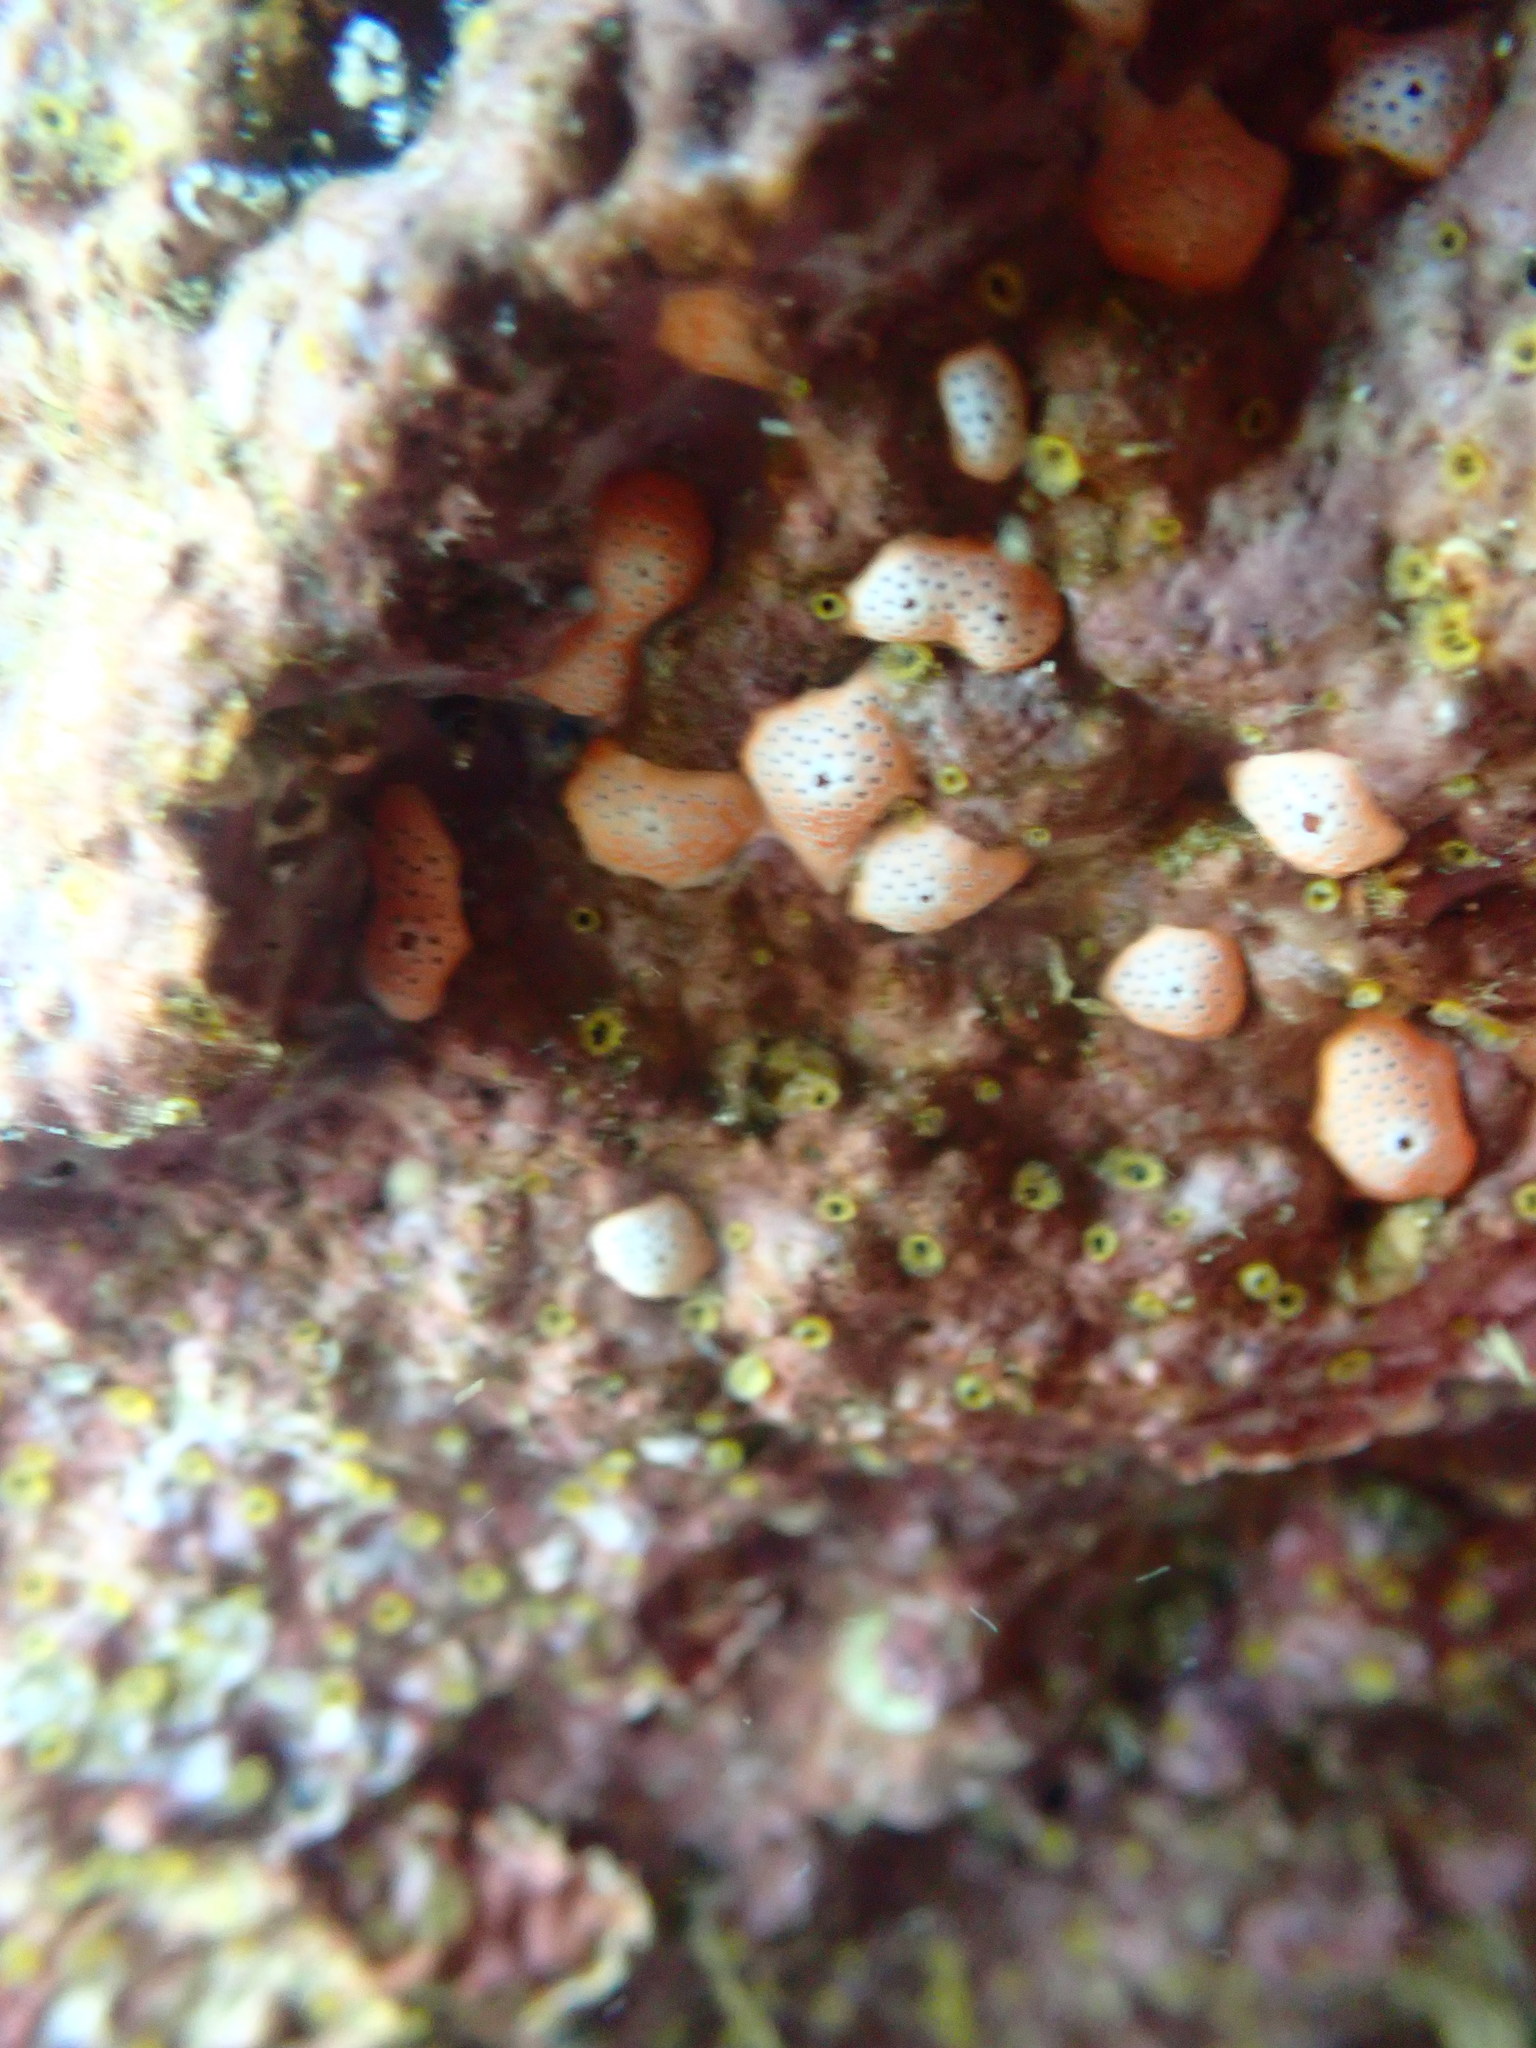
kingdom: Animalia
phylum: Chordata
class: Ascidiacea
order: Aplousobranchia
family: Didemnidae
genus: Didemnum
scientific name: Didemnum densum
